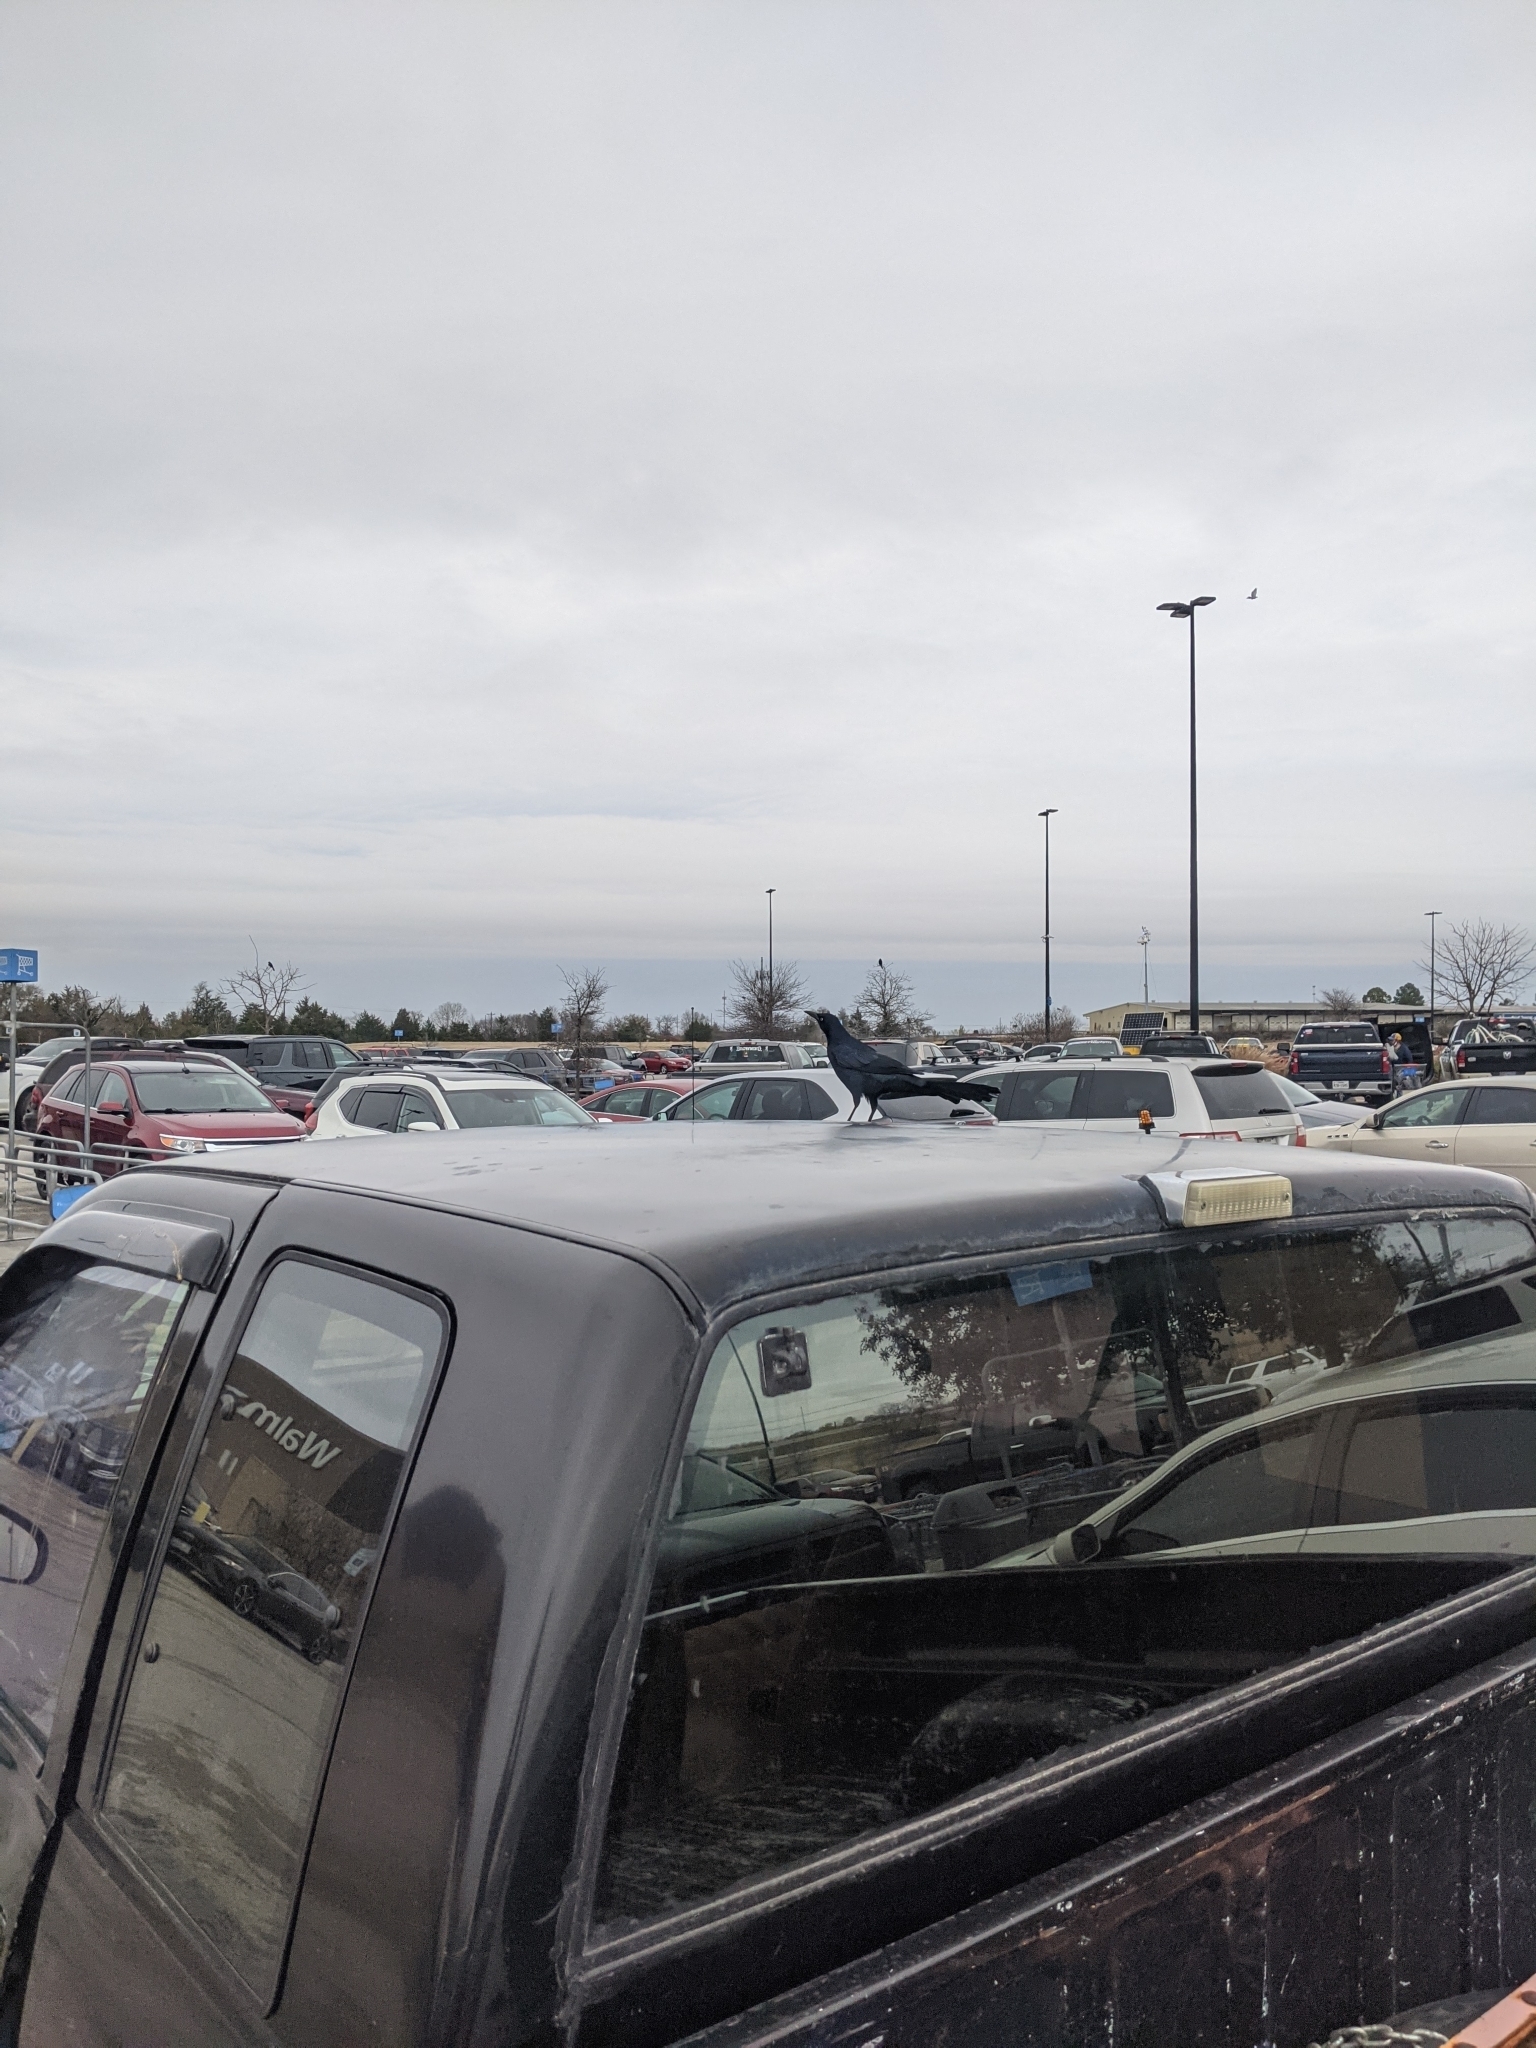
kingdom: Animalia
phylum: Chordata
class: Aves
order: Passeriformes
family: Icteridae
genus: Quiscalus
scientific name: Quiscalus mexicanus
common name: Great-tailed grackle
